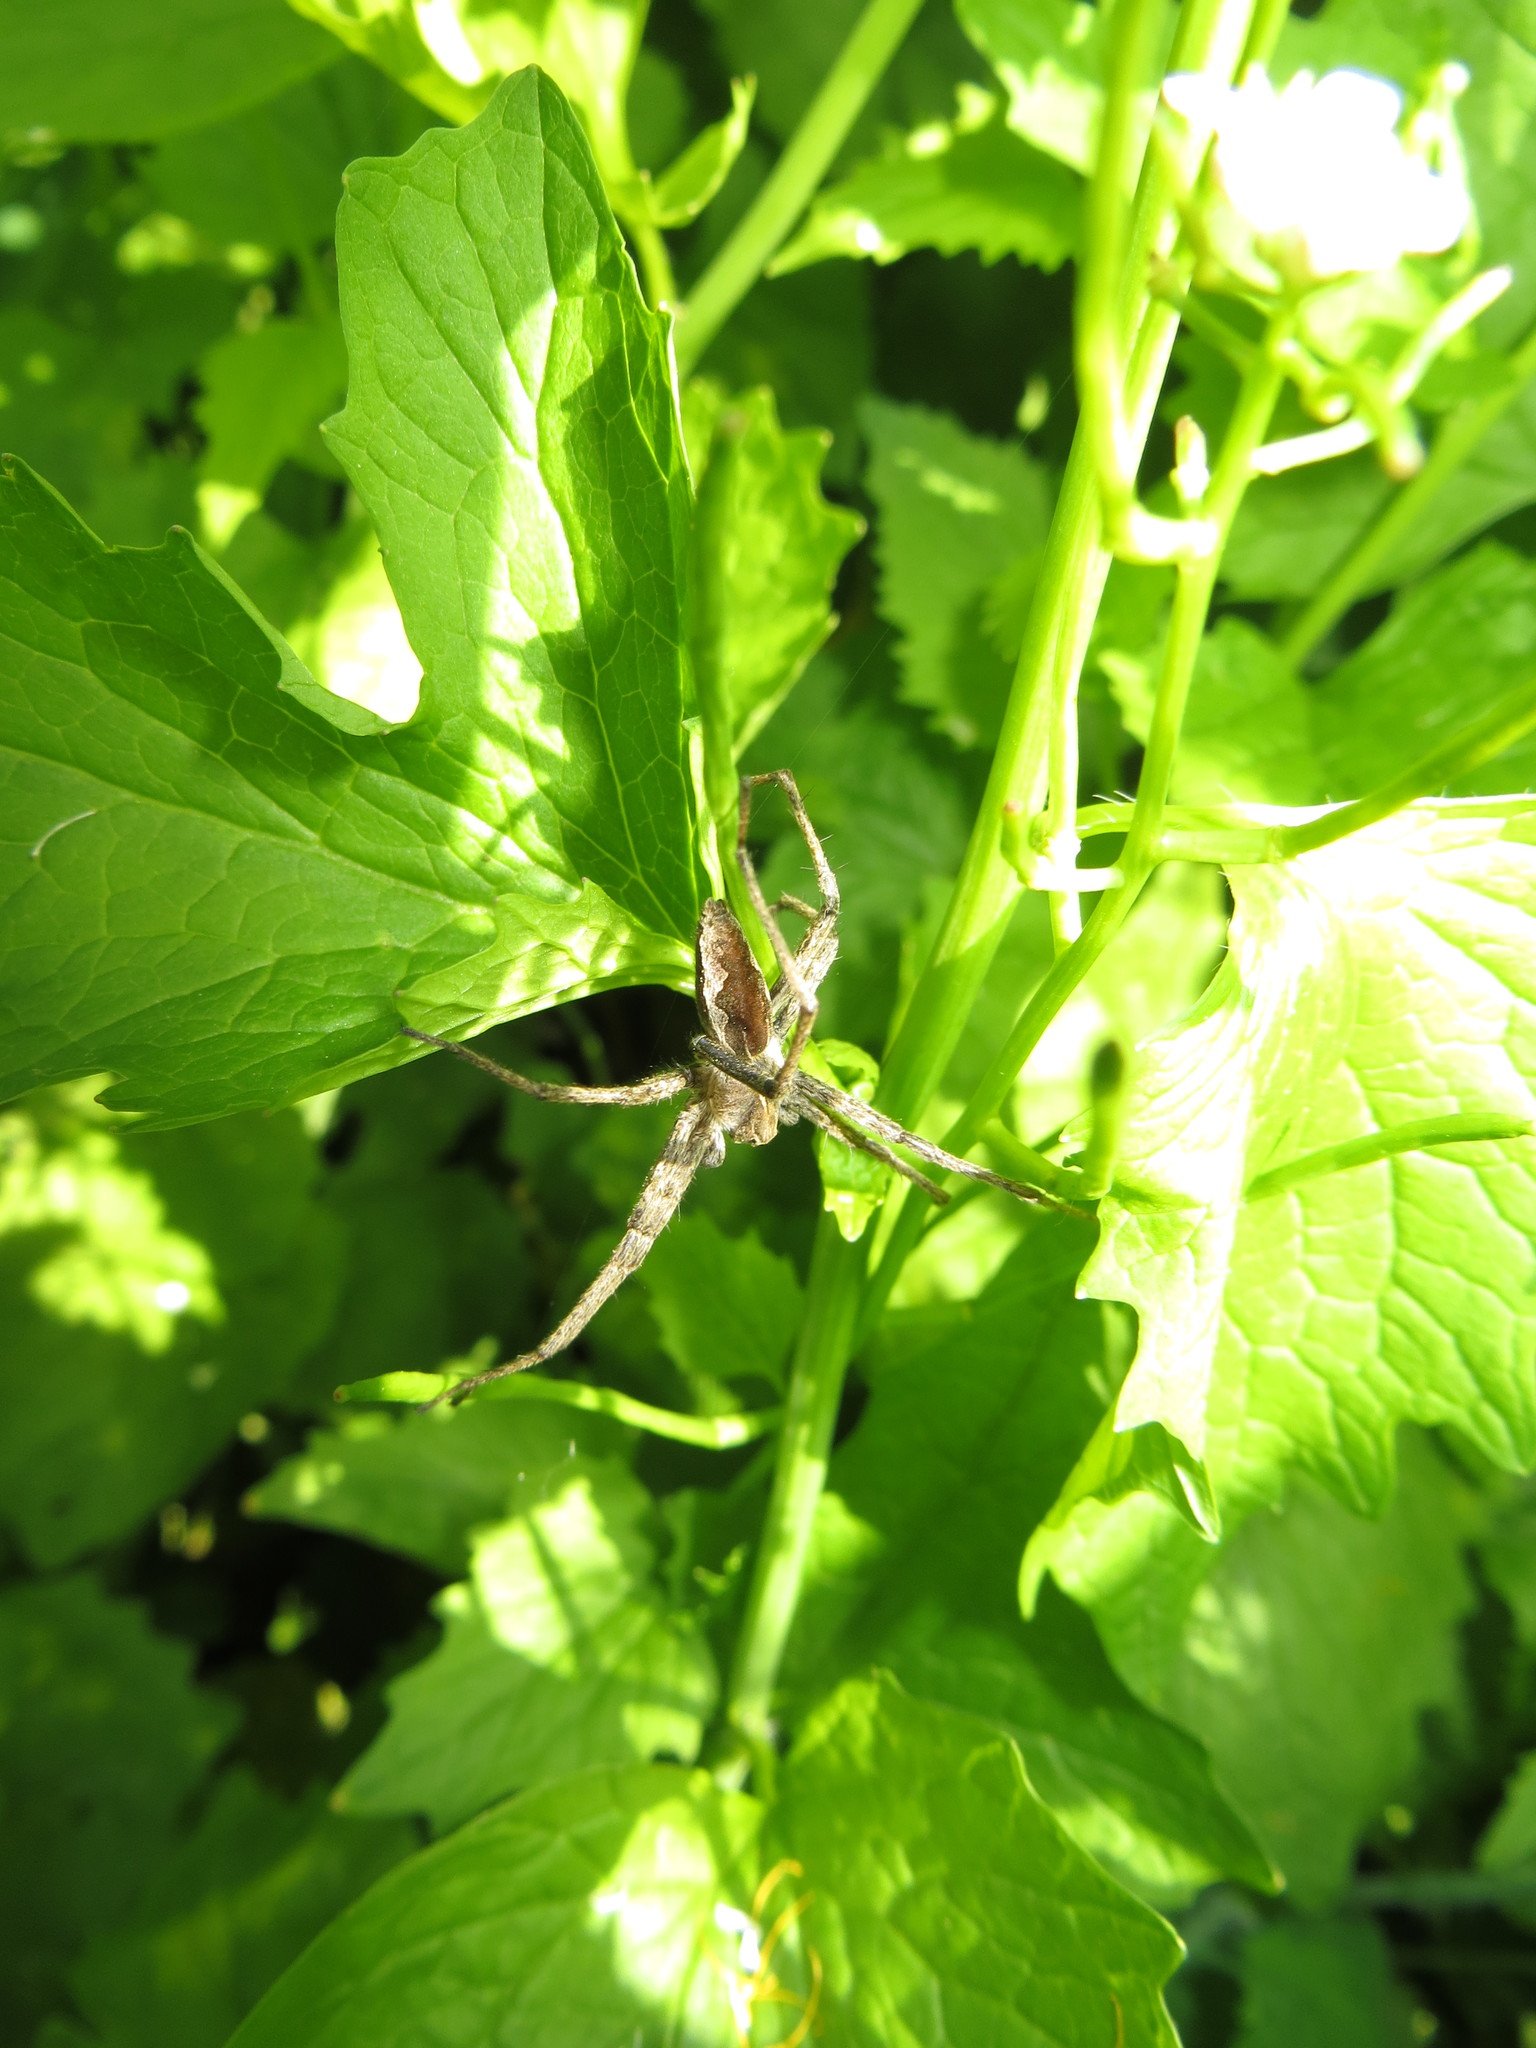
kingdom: Animalia
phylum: Arthropoda
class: Arachnida
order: Araneae
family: Pisauridae
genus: Pisaura
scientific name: Pisaura mirabilis
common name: Tent spider
